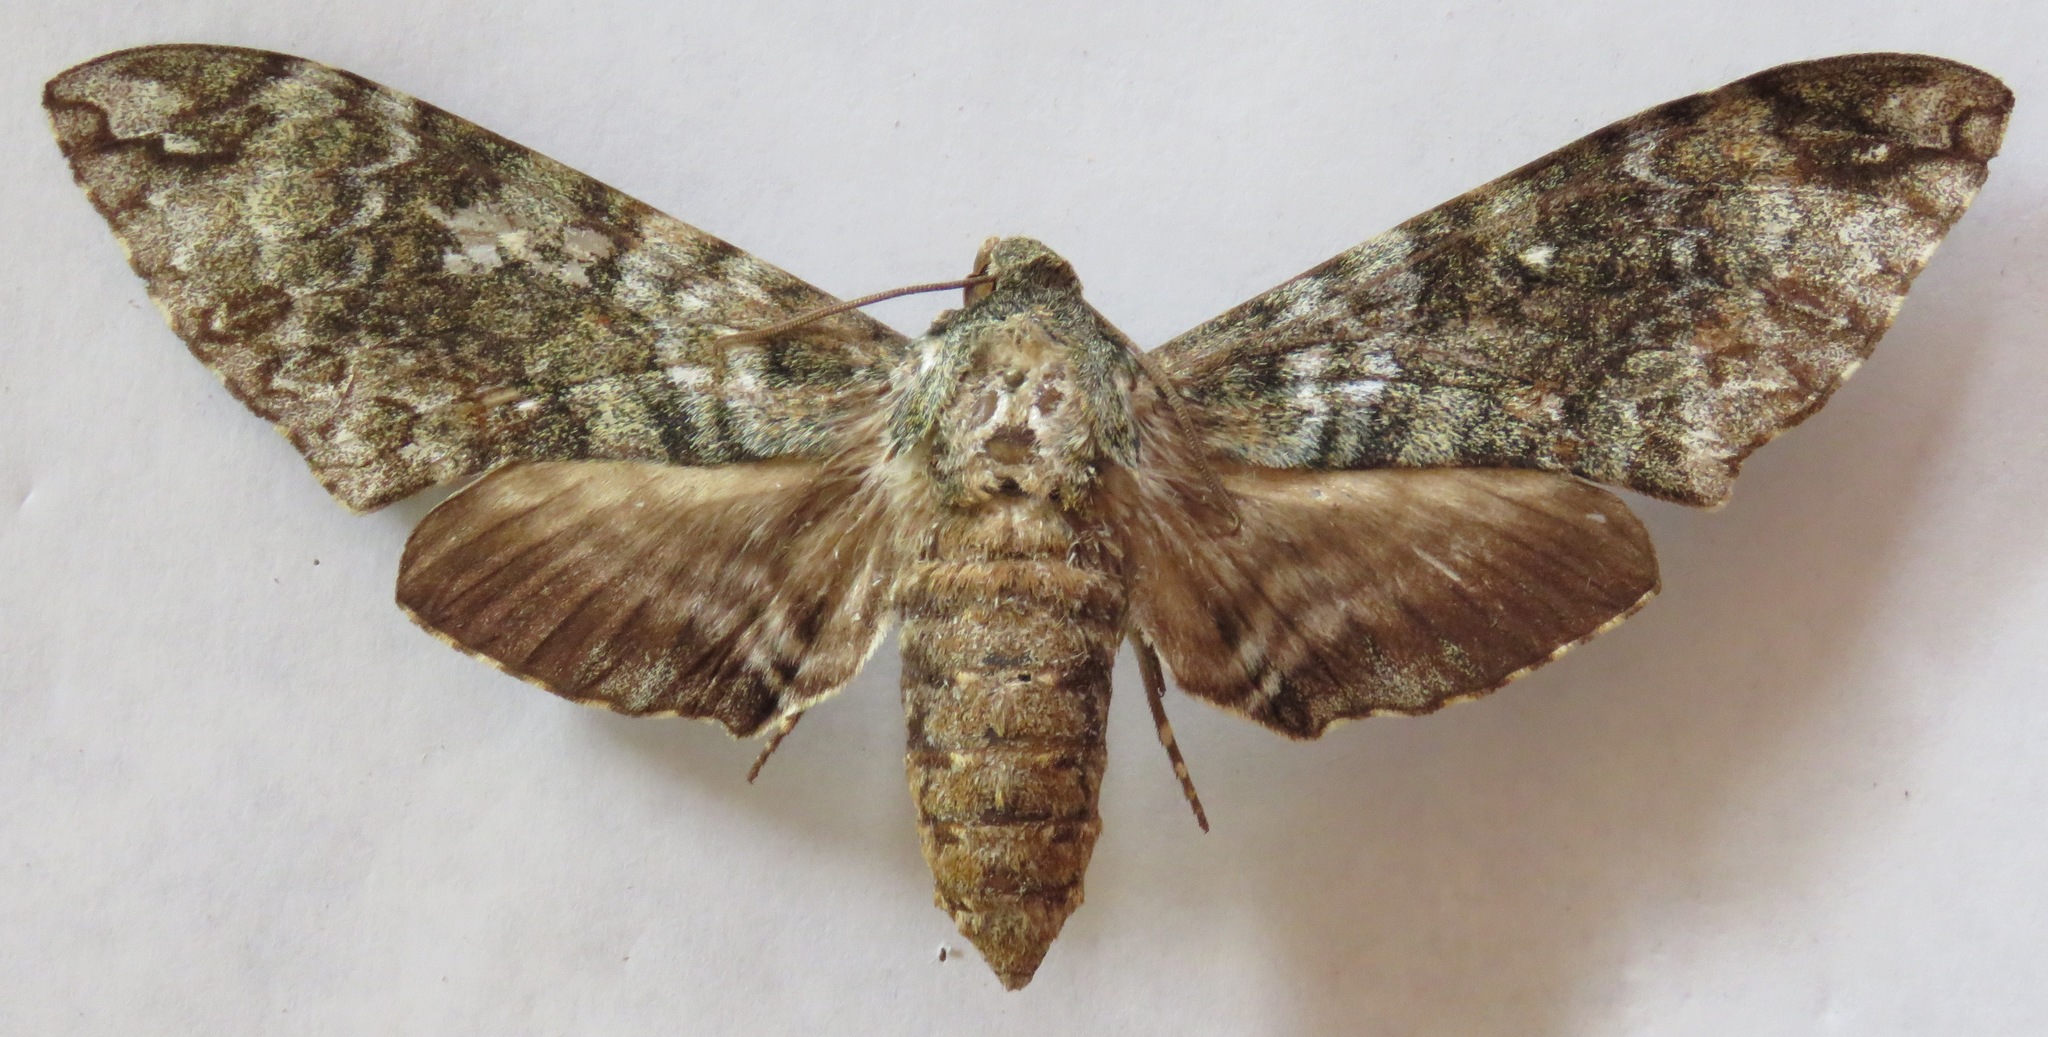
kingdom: Animalia
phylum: Arthropoda
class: Insecta
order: Lepidoptera
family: Sphingidae
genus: Manduca
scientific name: Manduca corallina
